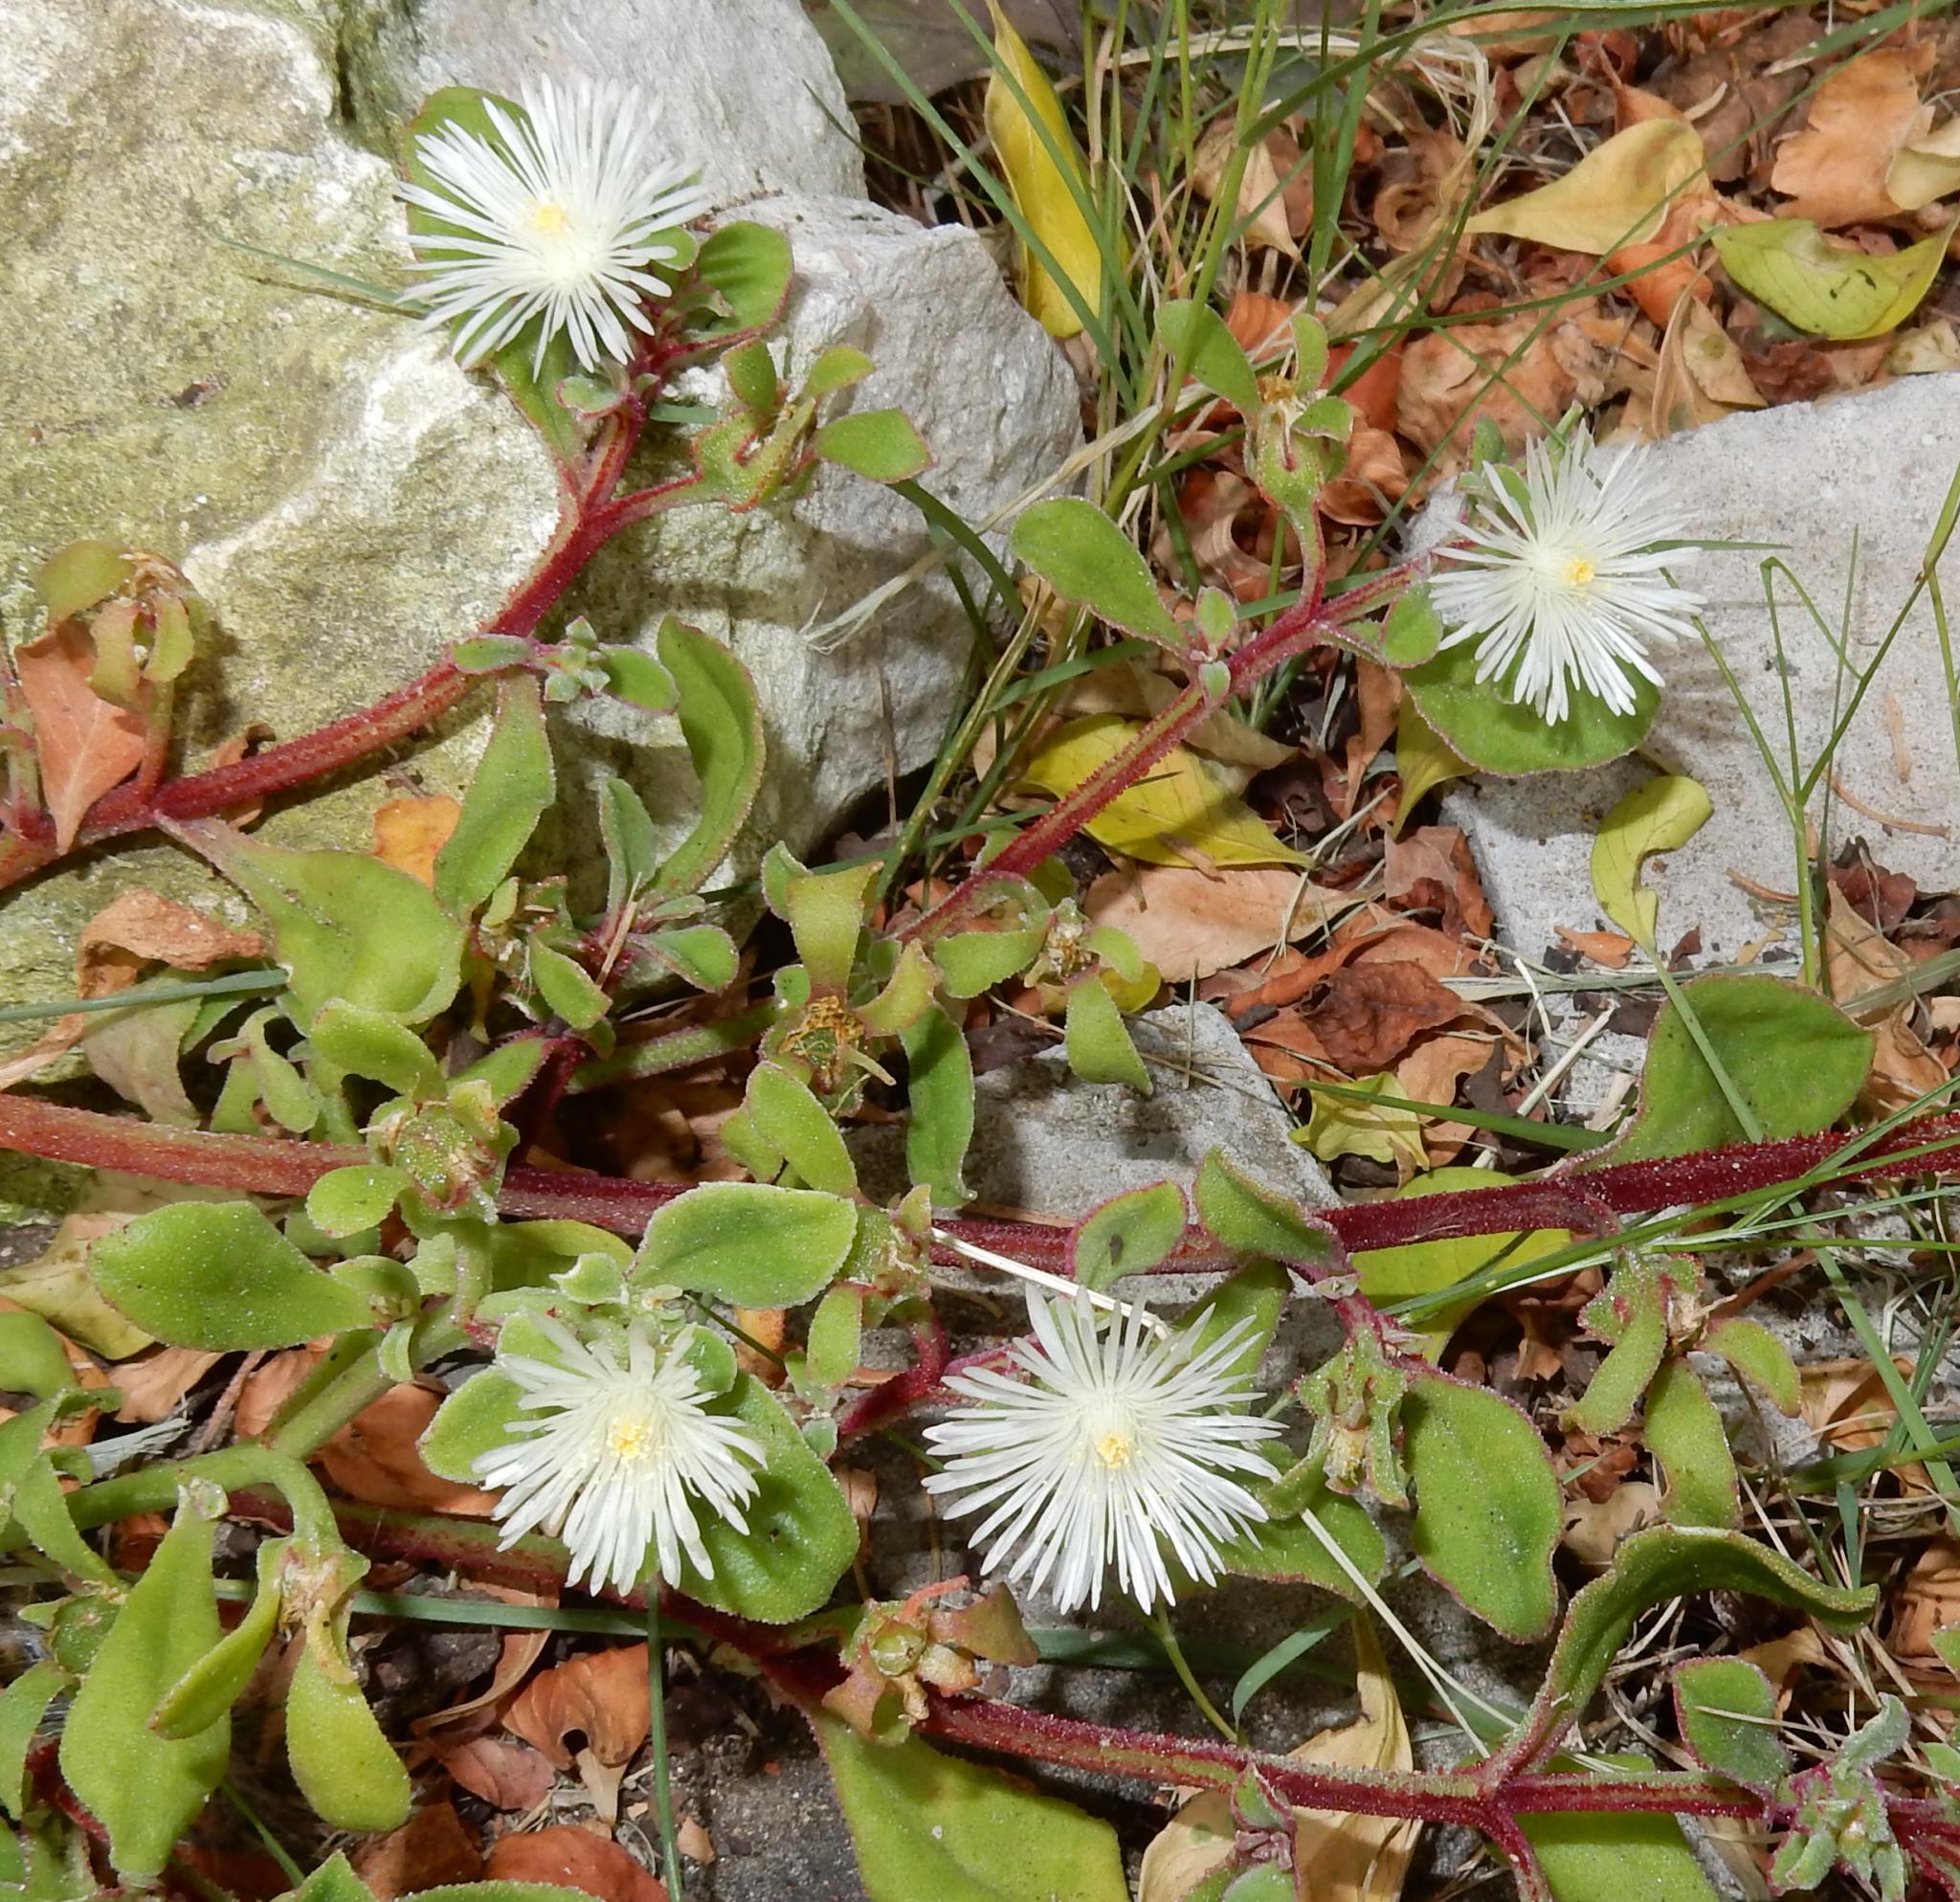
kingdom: Plantae
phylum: Tracheophyta
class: Magnoliopsida
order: Caryophyllales
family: Aizoaceae
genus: Mesembryanthemum
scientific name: Mesembryanthemum aitonis
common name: Angled iceplant
